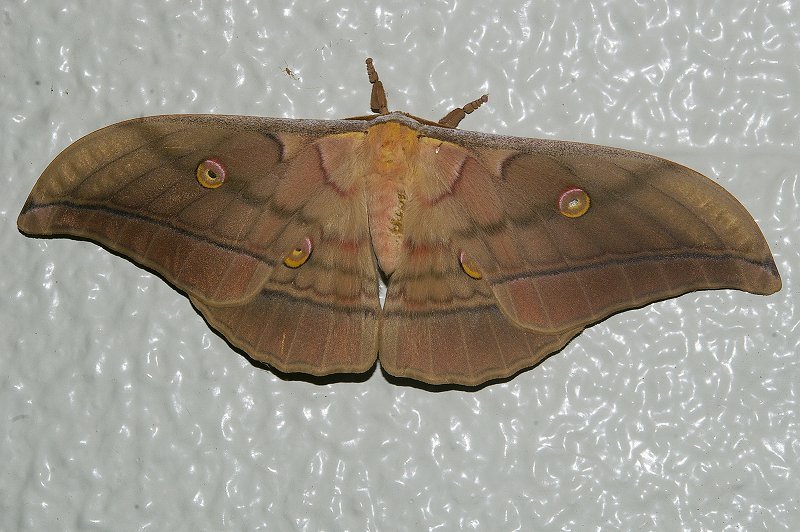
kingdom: Animalia
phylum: Arthropoda
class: Insecta
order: Lepidoptera
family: Saturniidae
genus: Antheraea
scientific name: Antheraea yamamai
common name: Japanese oak silk moth
